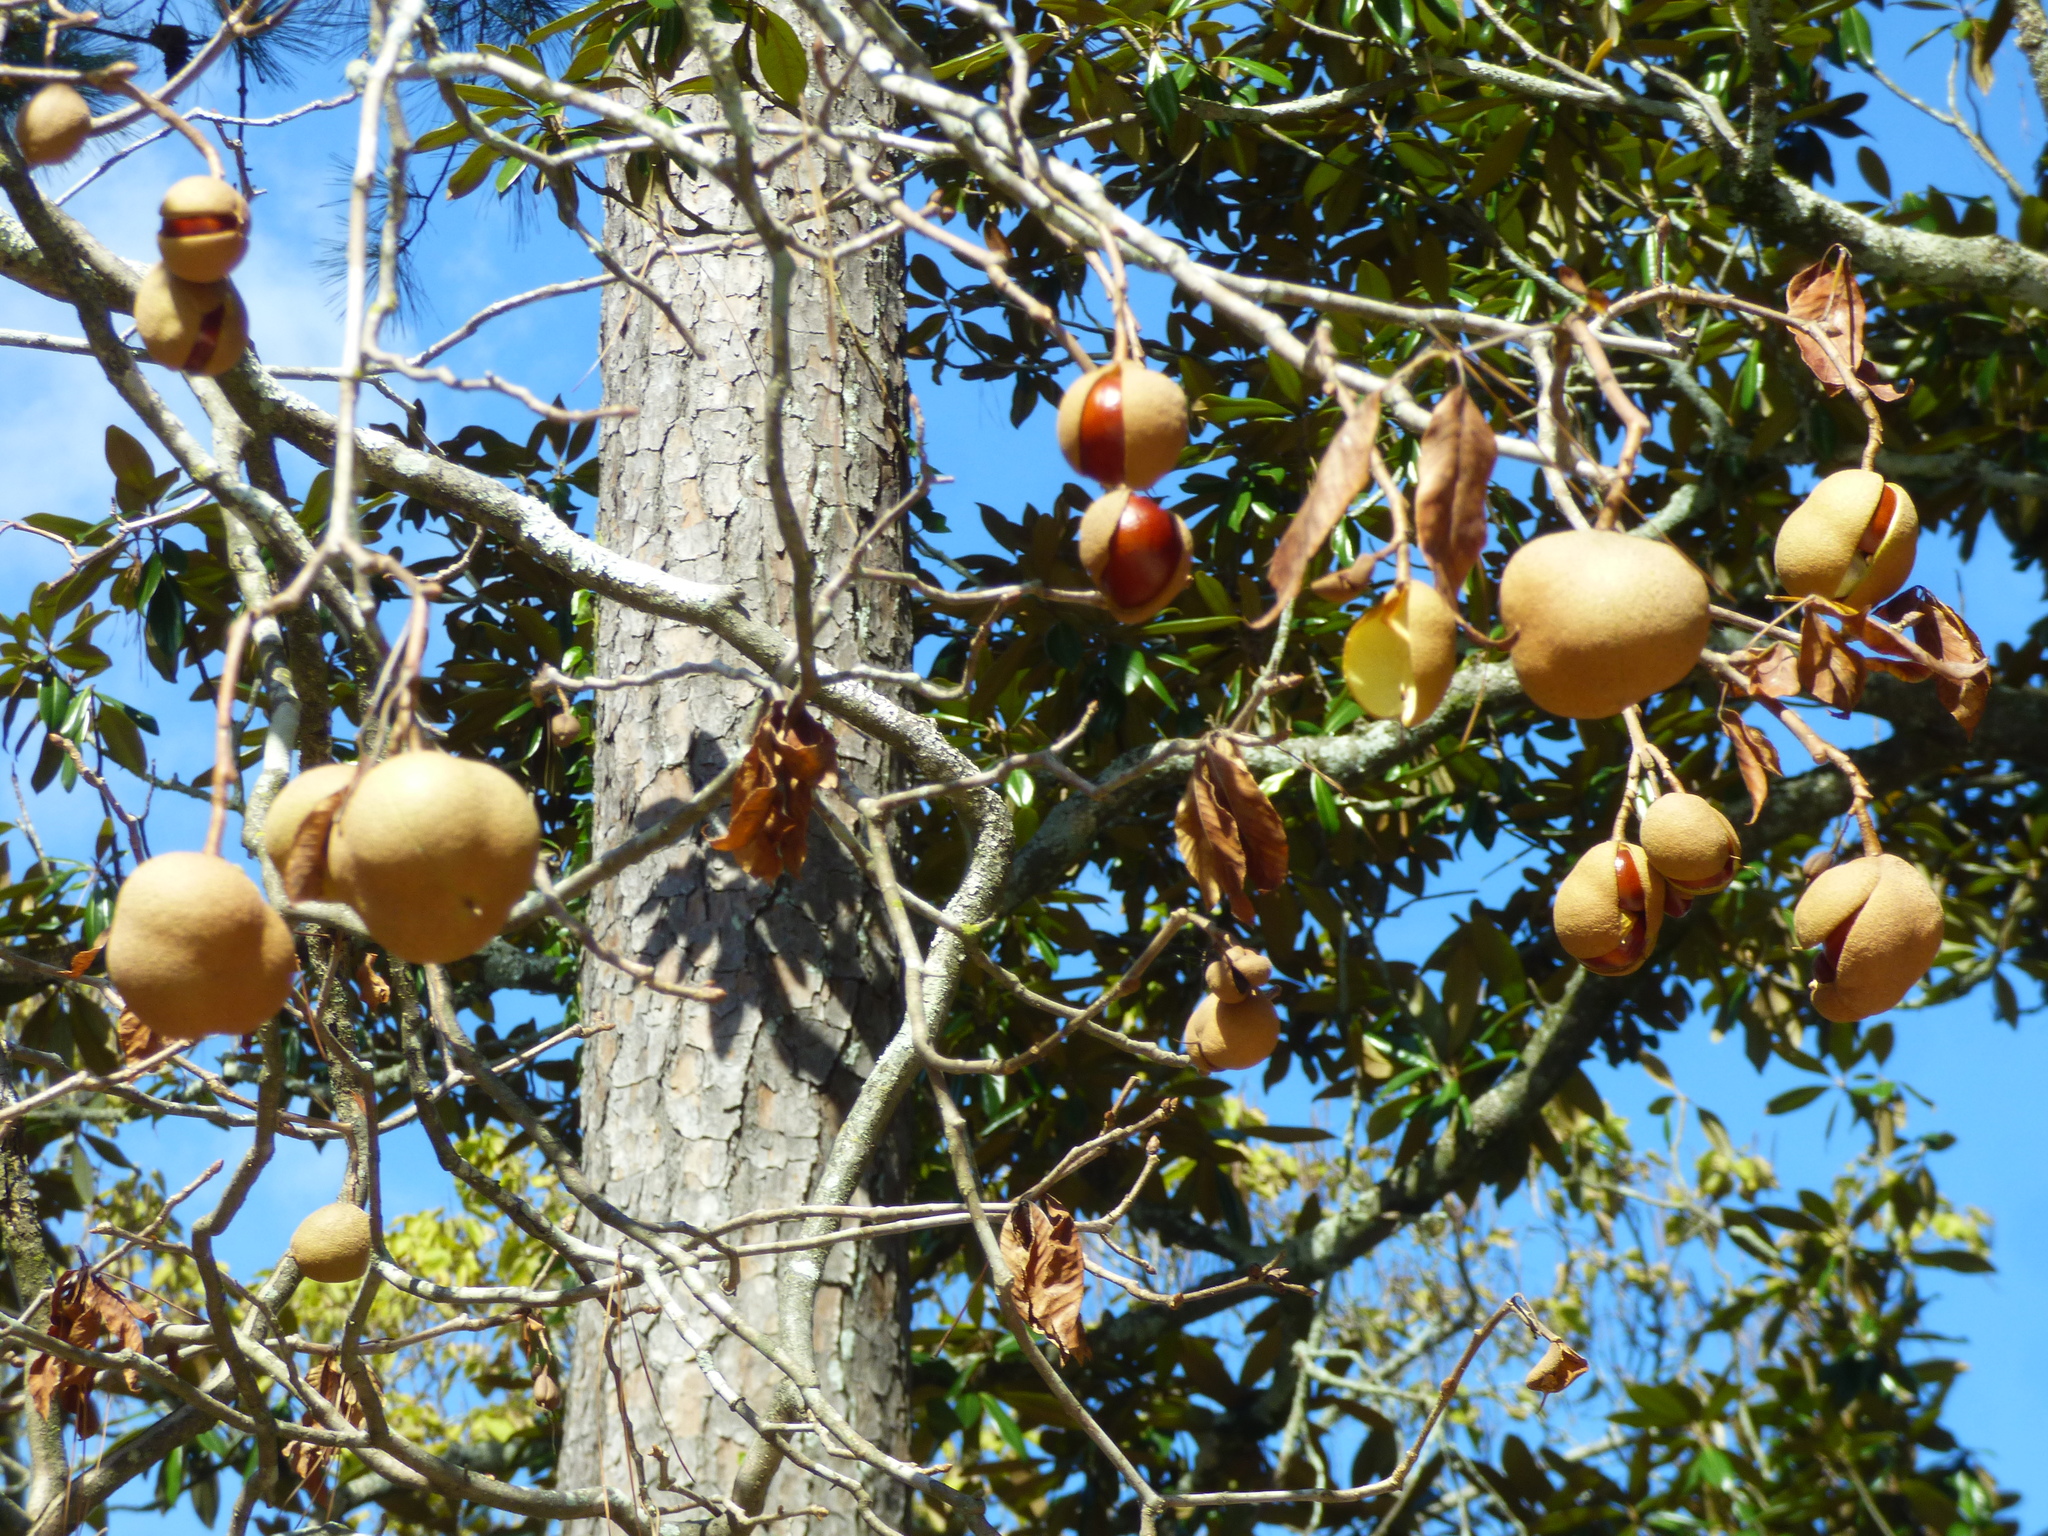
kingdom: Plantae
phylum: Tracheophyta
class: Magnoliopsida
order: Sapindales
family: Sapindaceae
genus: Aesculus
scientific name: Aesculus pavia
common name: Red buckeye
